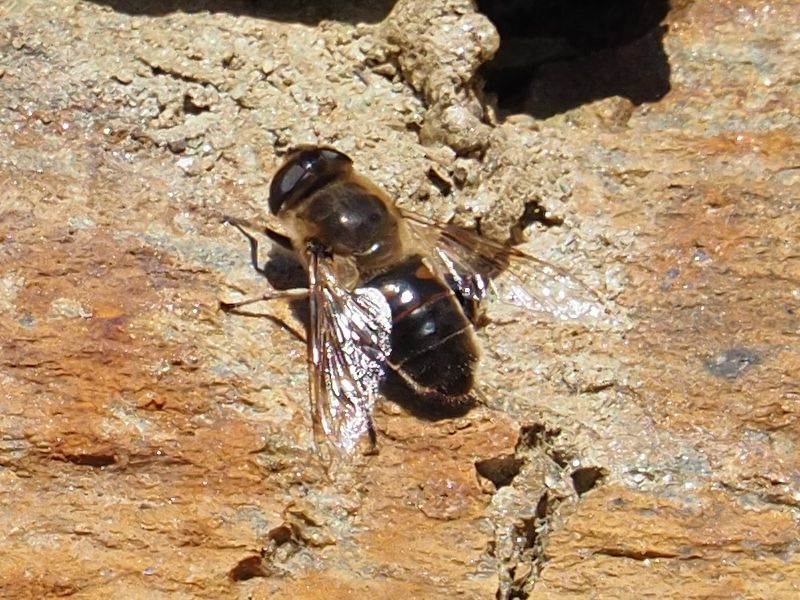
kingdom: Animalia
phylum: Arthropoda
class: Insecta
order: Diptera
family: Syrphidae
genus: Eristalis
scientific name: Eristalis tenax
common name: Drone fly
